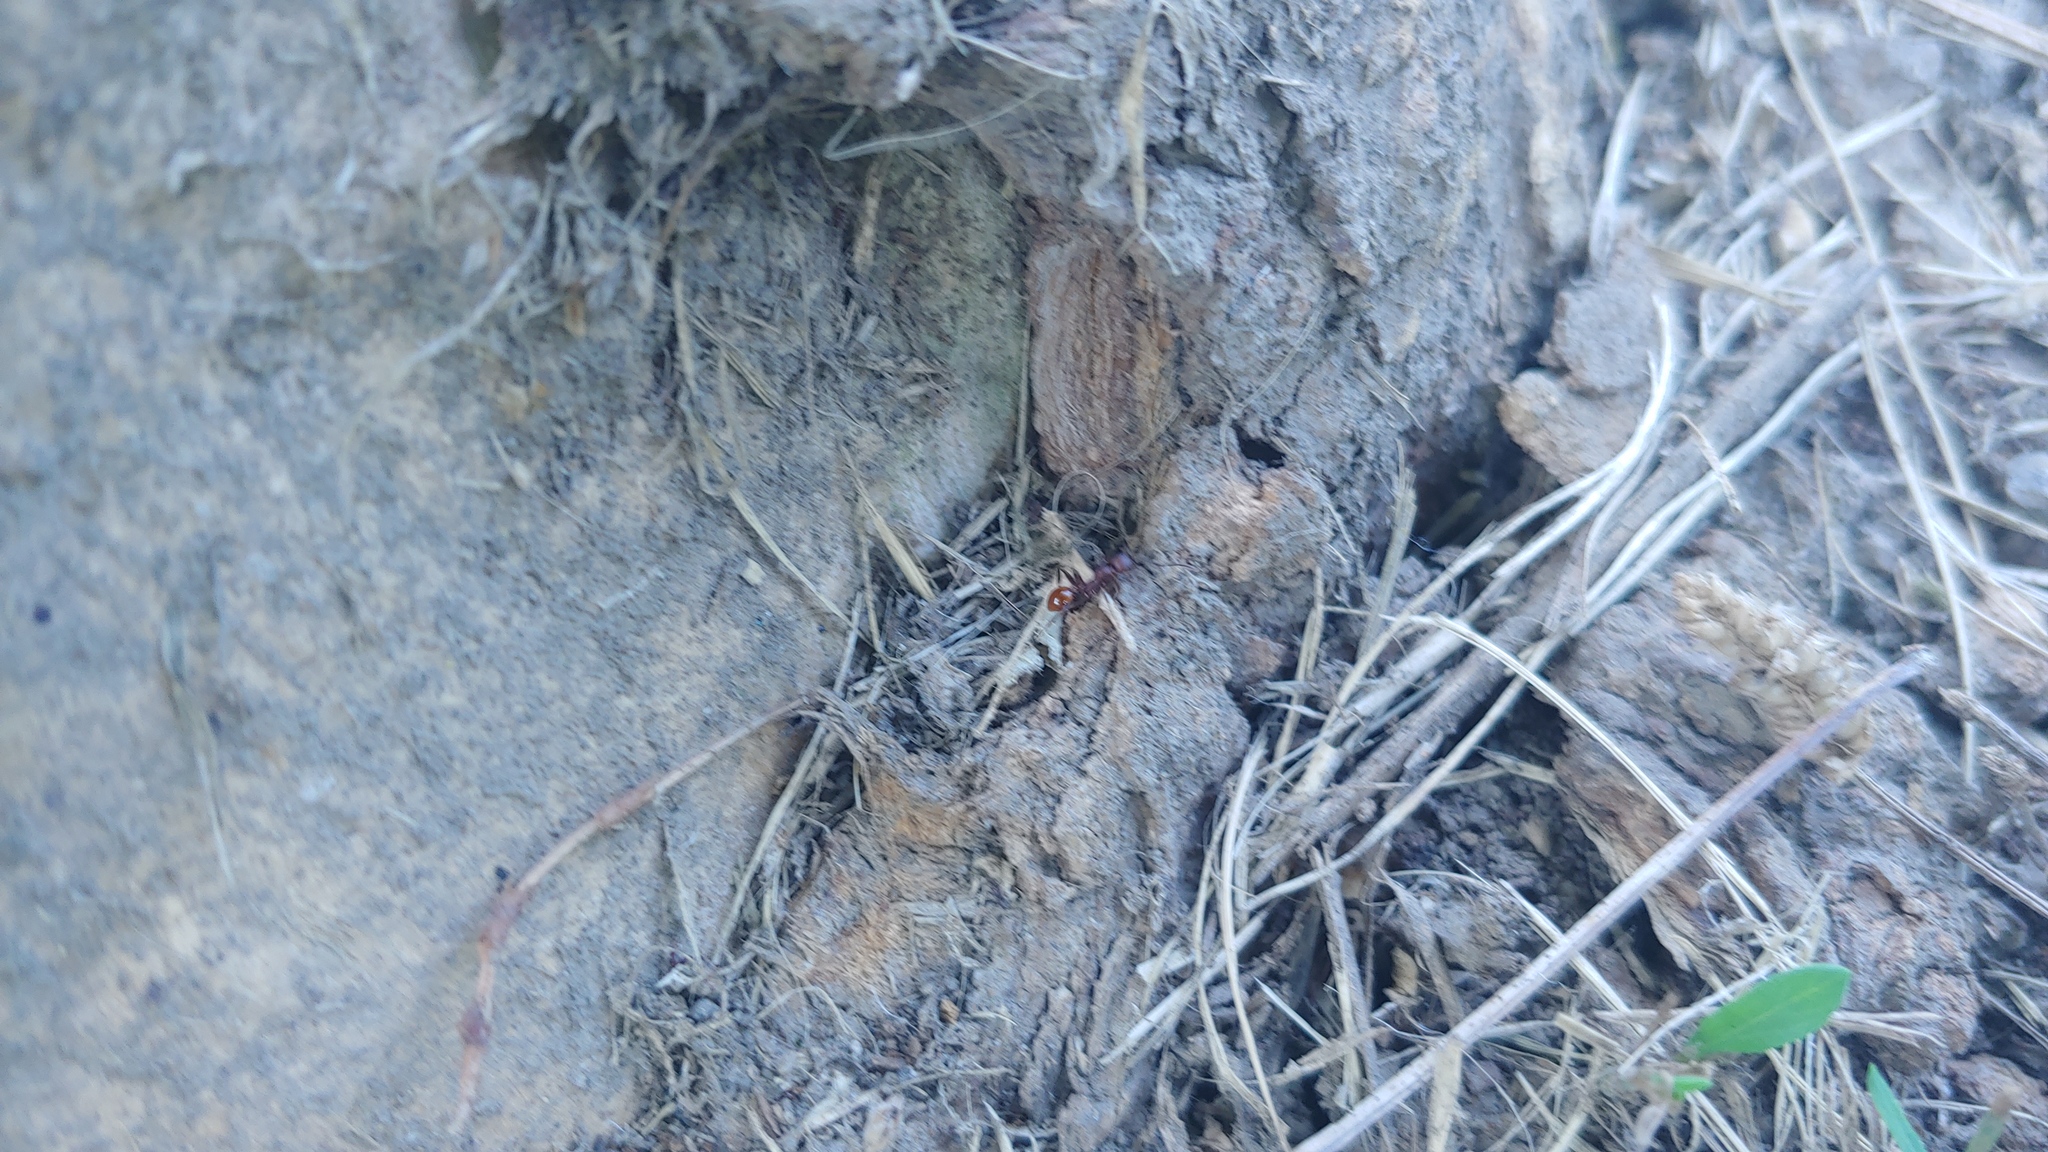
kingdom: Animalia
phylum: Arthropoda
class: Insecta
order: Hymenoptera
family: Formicidae
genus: Aphaenogaster
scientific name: Aphaenogaster tennesseensis
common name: Tennessee thread-waisted ant
